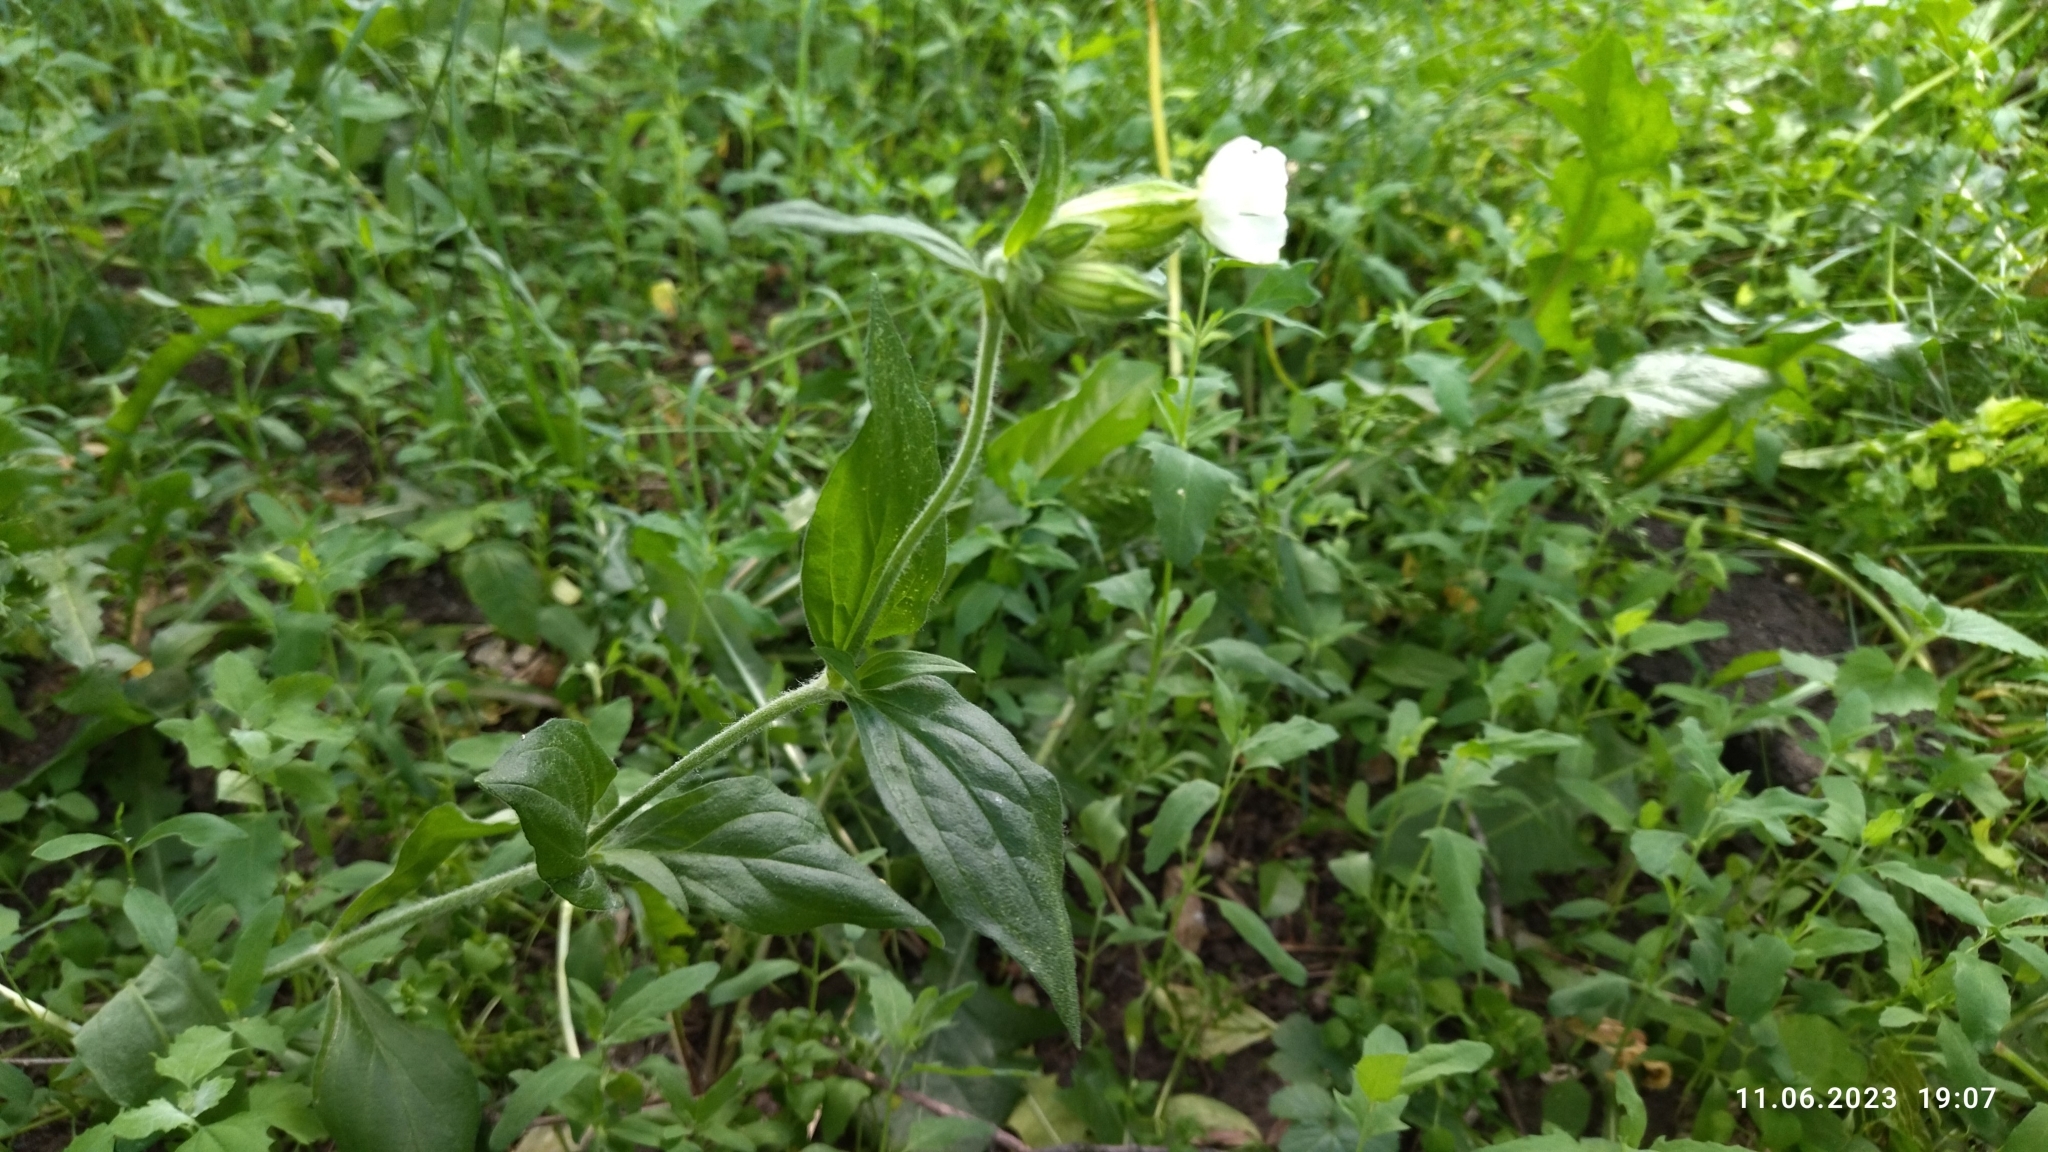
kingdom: Plantae
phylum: Tracheophyta
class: Magnoliopsida
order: Caryophyllales
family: Caryophyllaceae
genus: Silene
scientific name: Silene latifolia
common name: White campion
